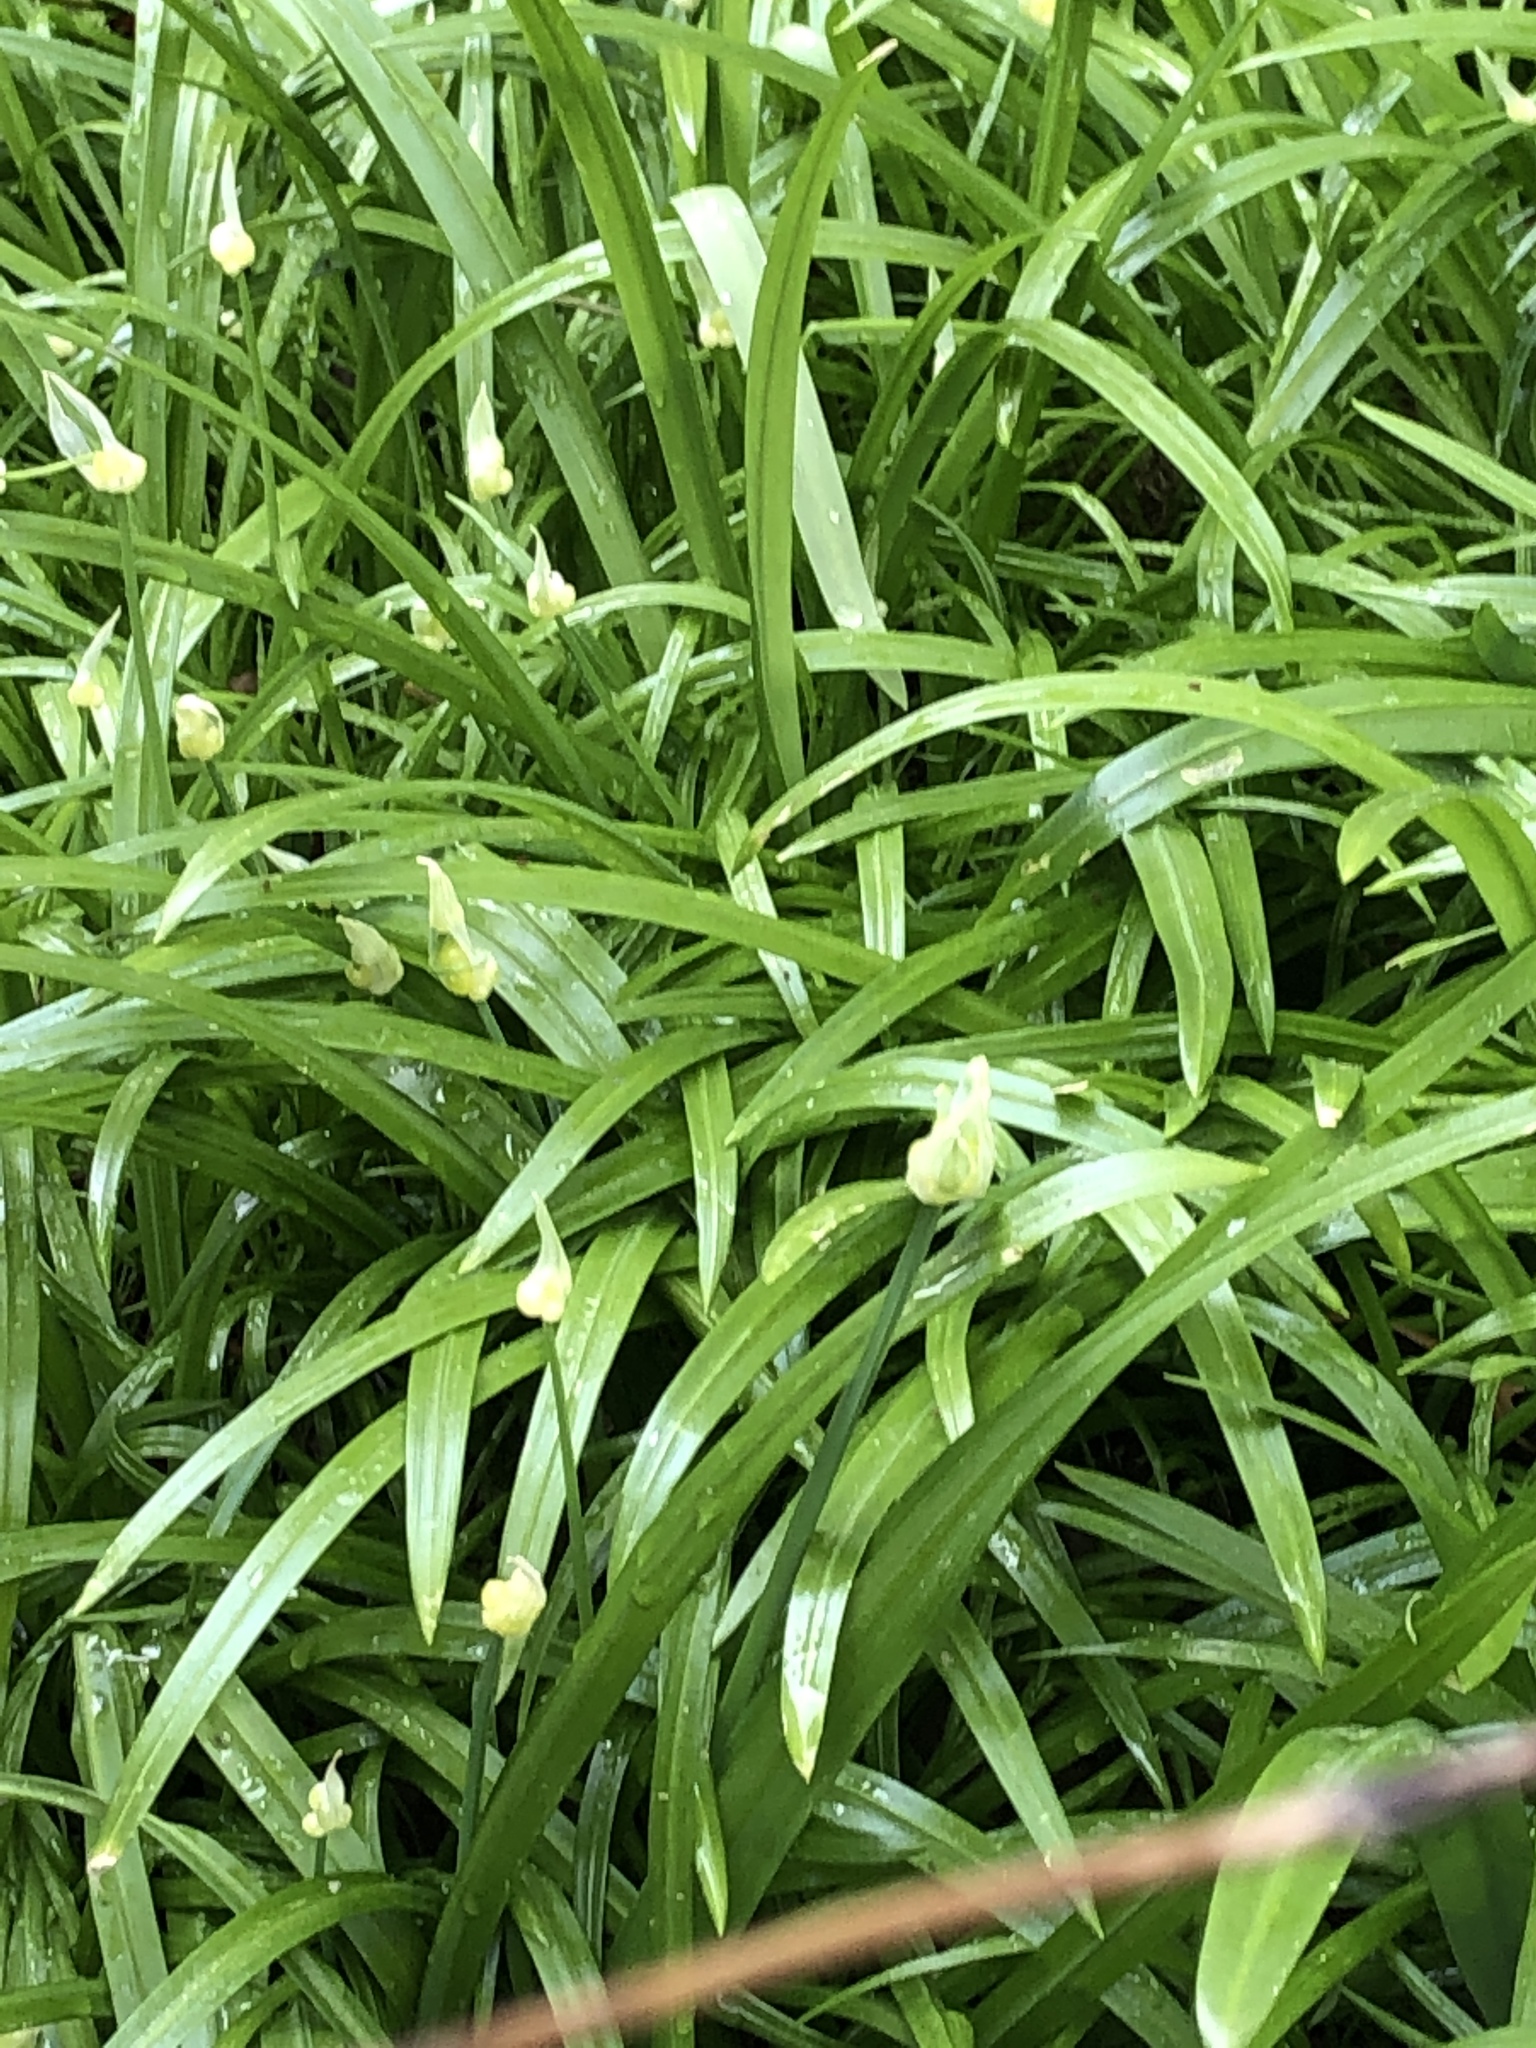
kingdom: Plantae
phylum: Tracheophyta
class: Liliopsida
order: Asparagales
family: Amaryllidaceae
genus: Allium
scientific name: Allium paradoxum
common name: Few-flowered garlic
